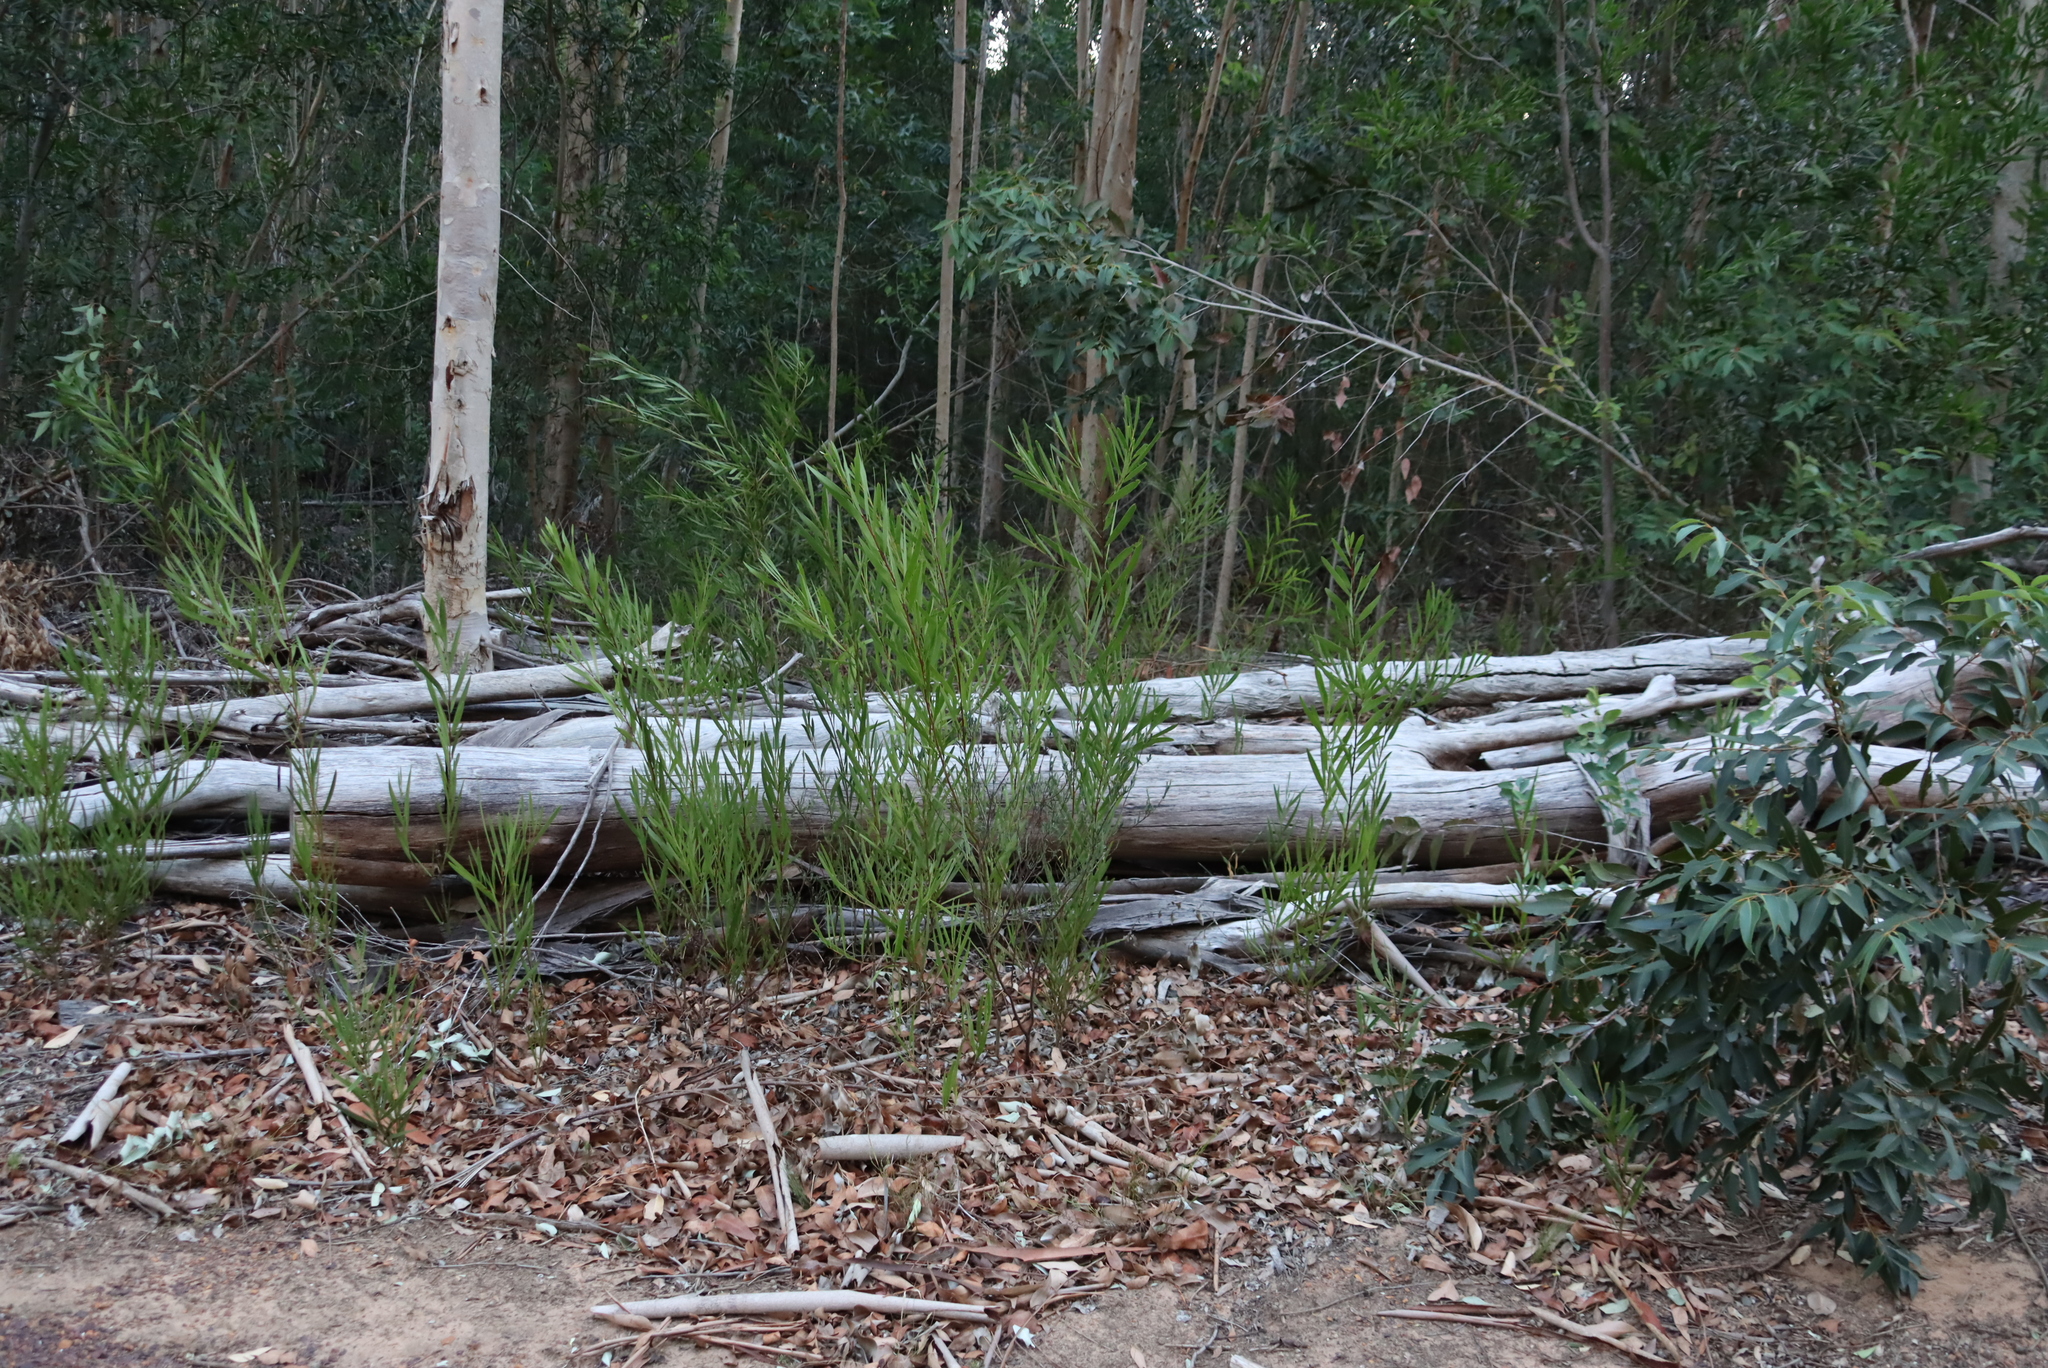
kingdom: Plantae
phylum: Tracheophyta
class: Magnoliopsida
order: Fabales
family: Fabaceae
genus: Acacia
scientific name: Acacia longifolia
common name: Sydney golden wattle
